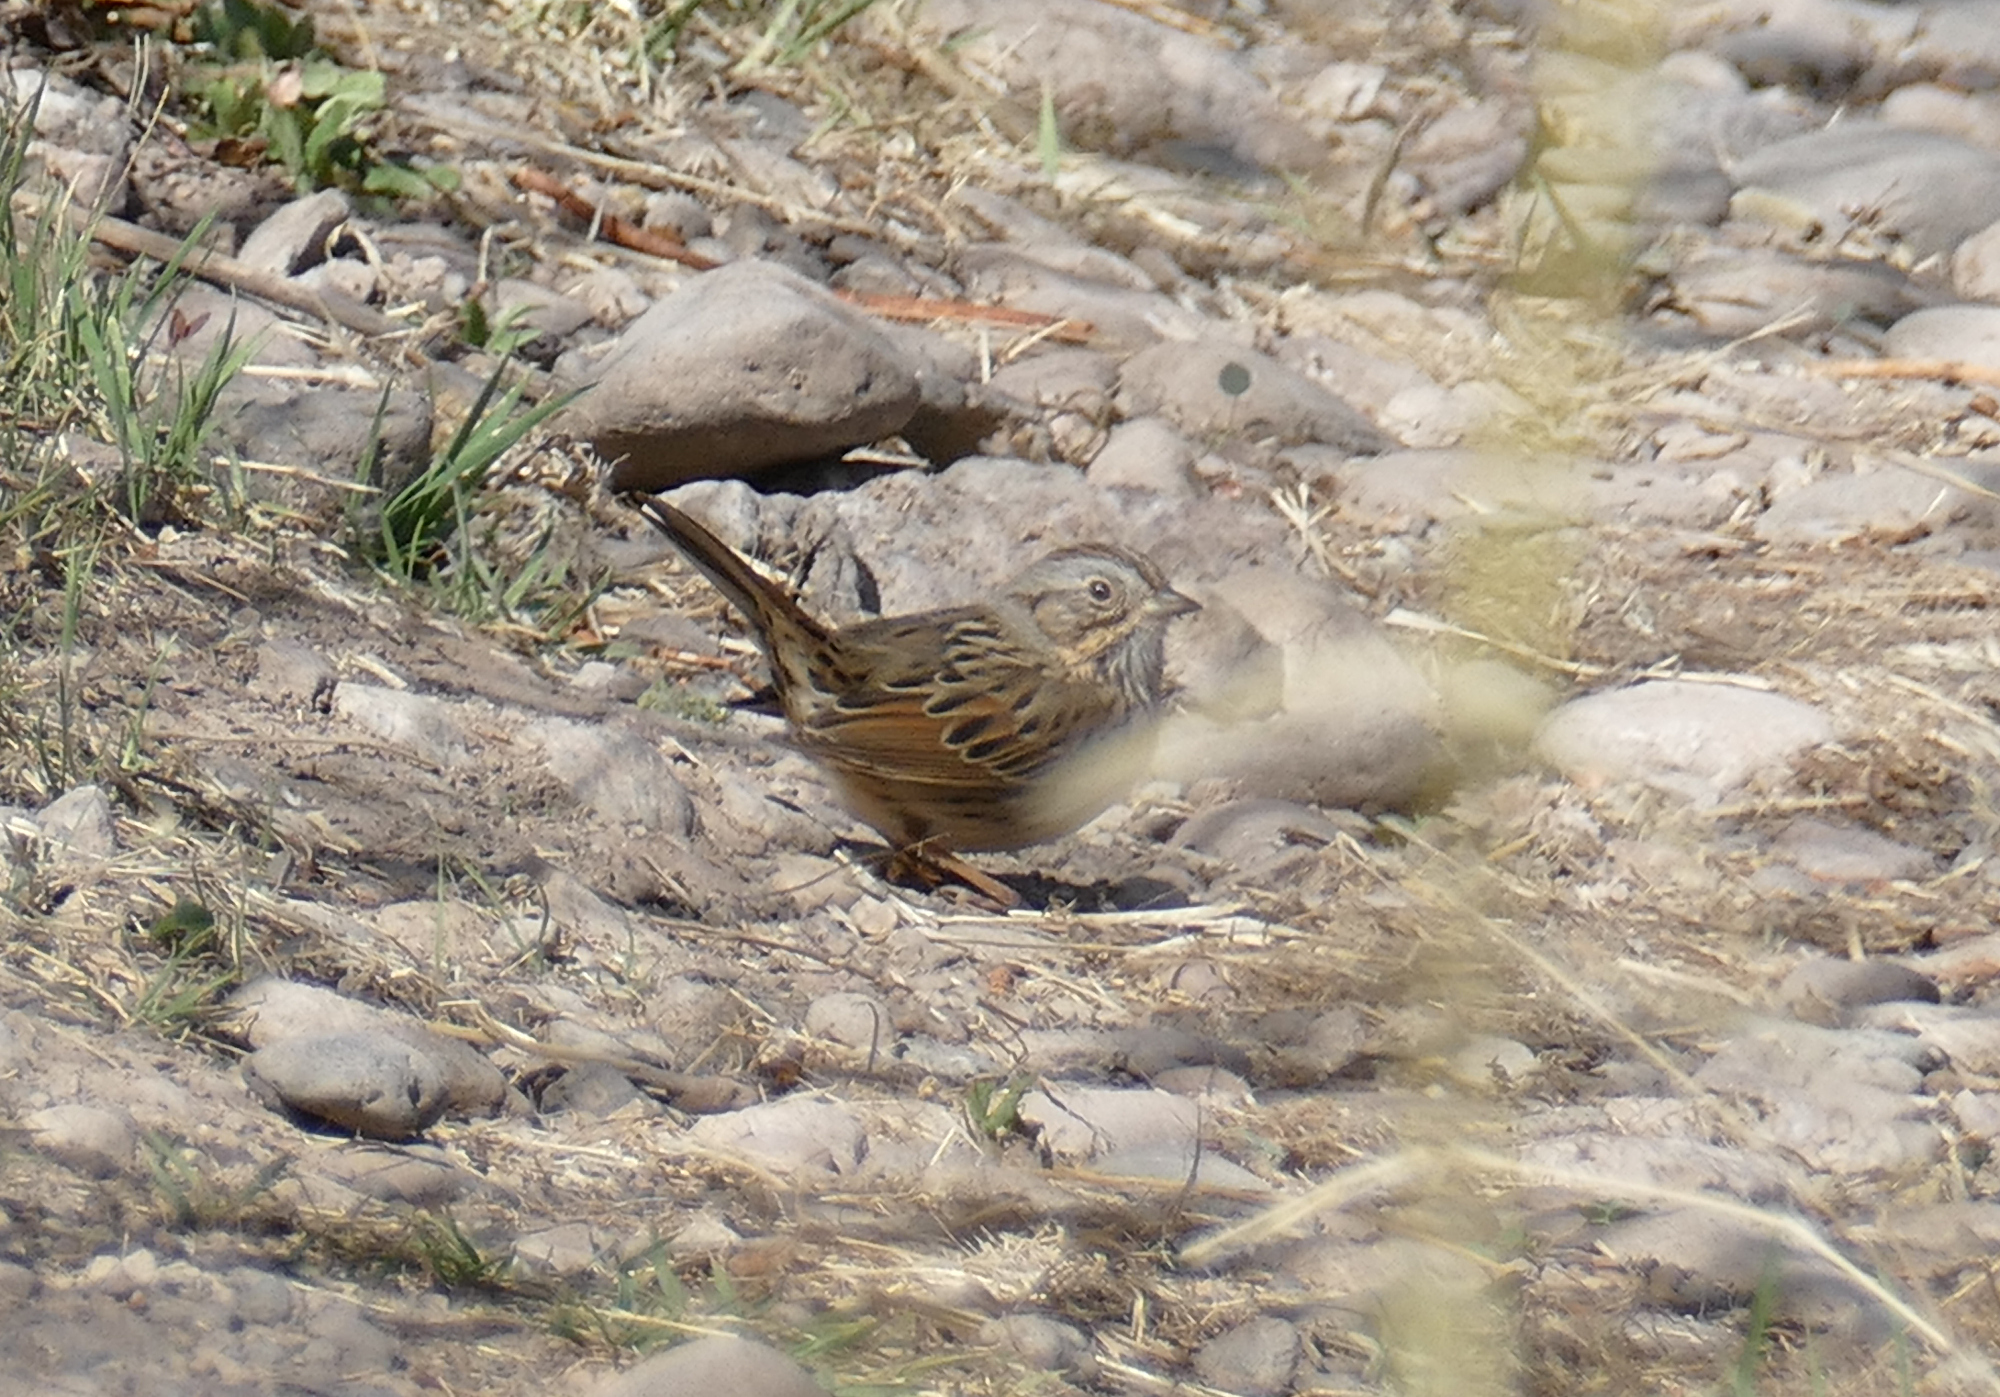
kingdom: Animalia
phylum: Chordata
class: Aves
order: Passeriformes
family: Passerellidae
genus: Melospiza
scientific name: Melospiza lincolnii
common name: Lincoln's sparrow
